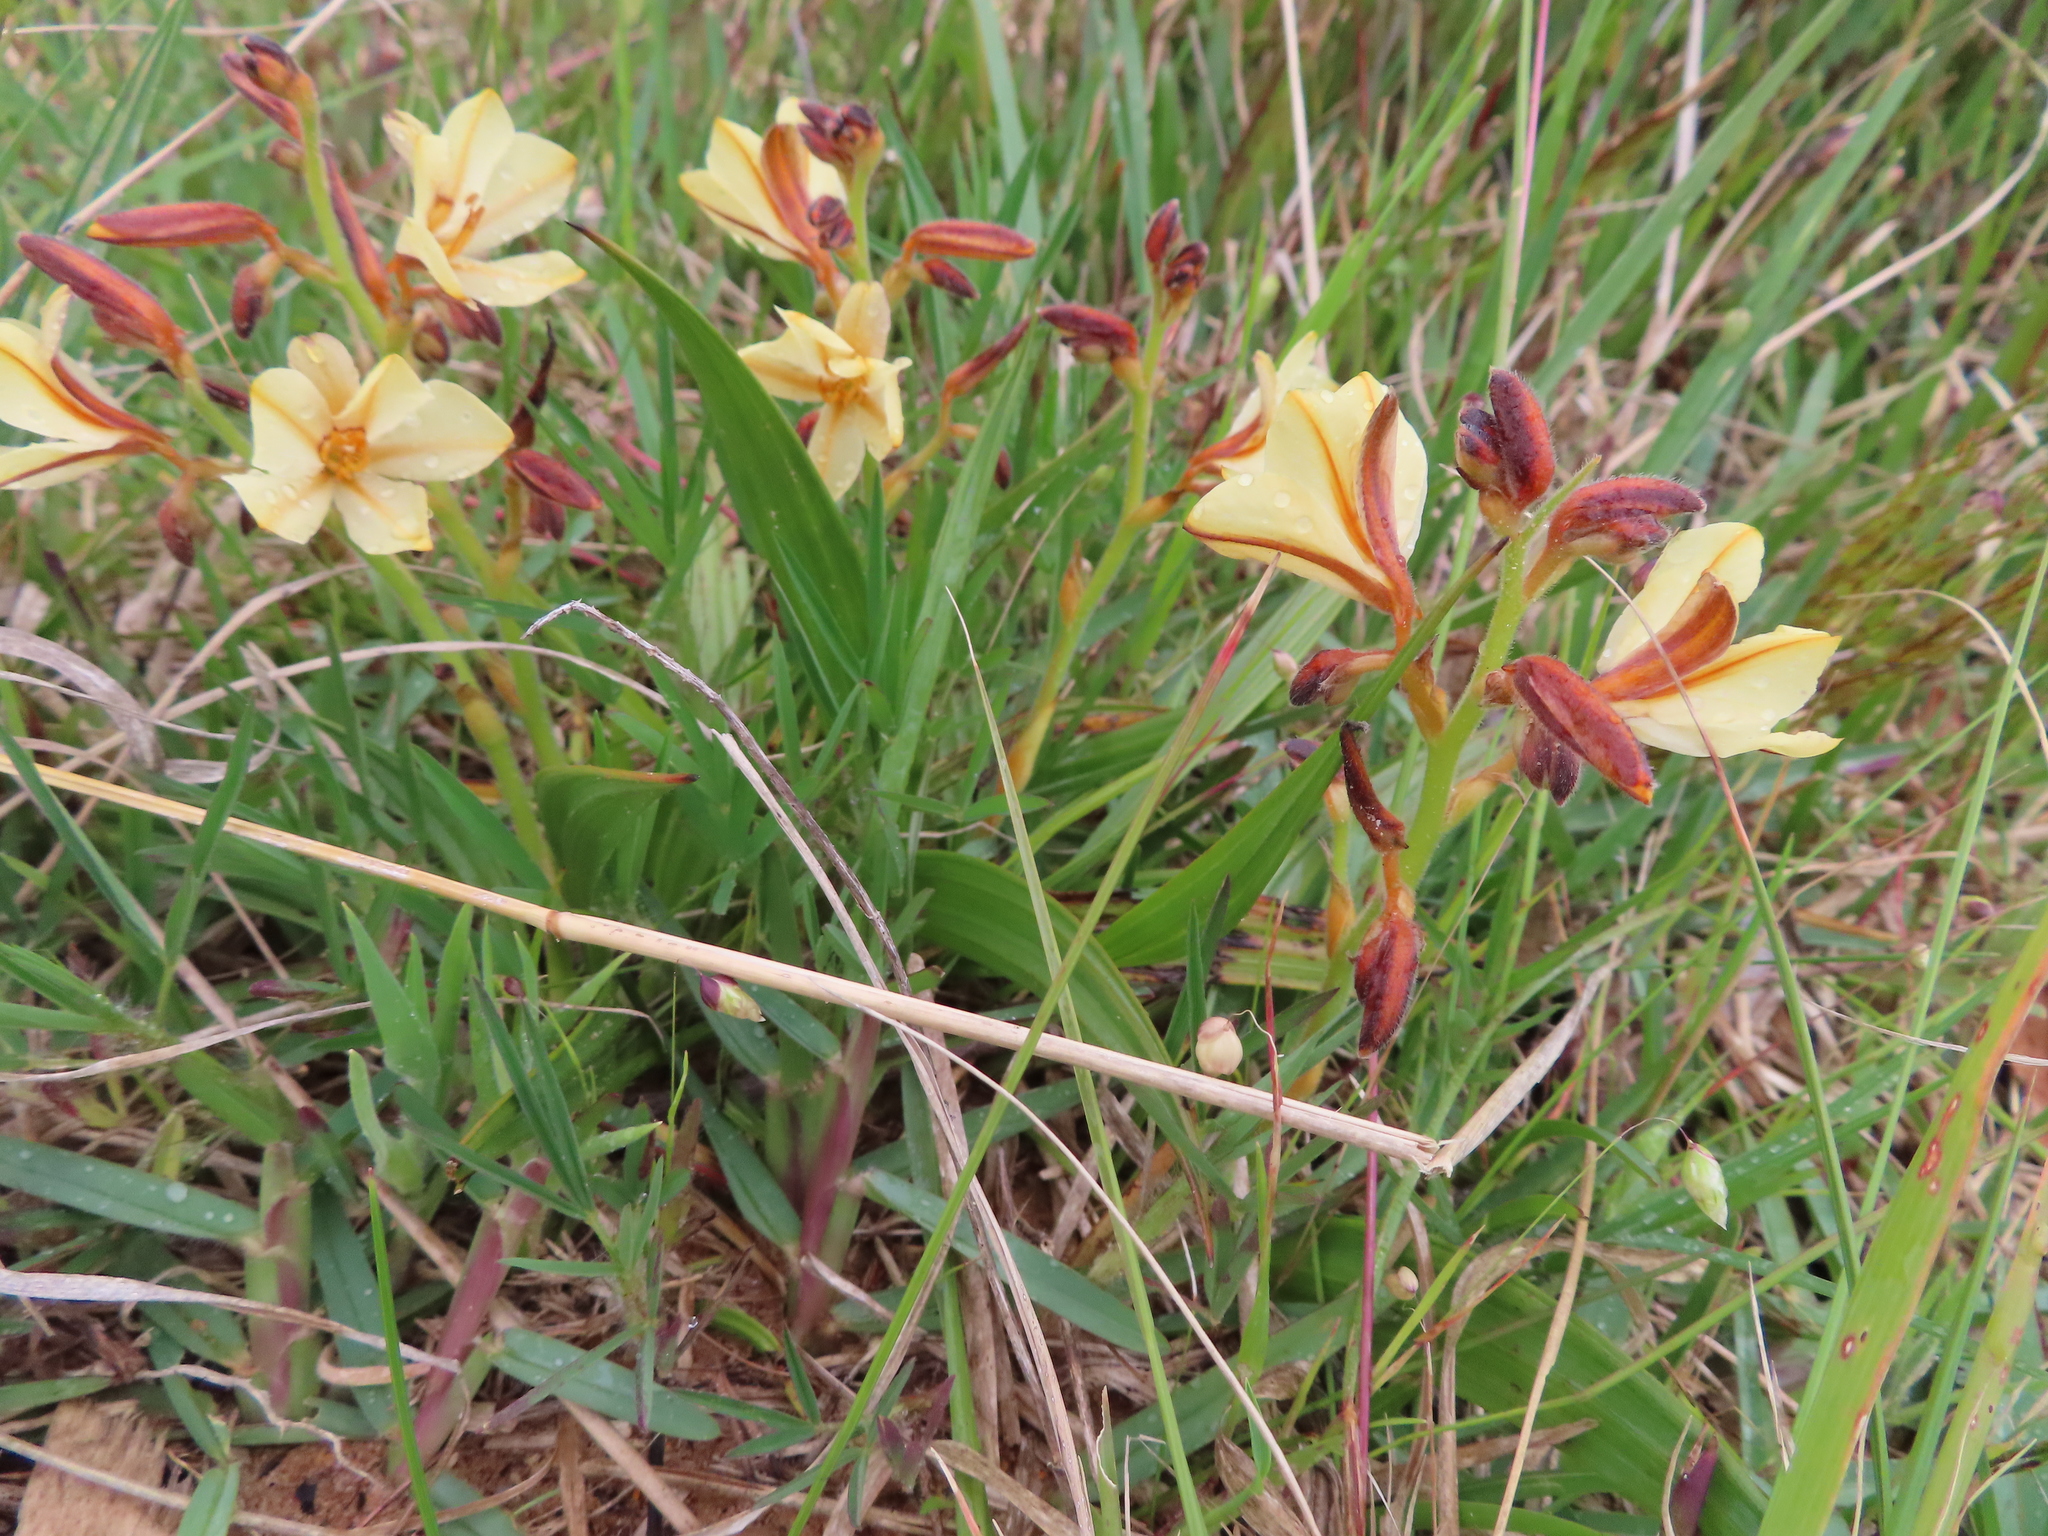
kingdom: Plantae
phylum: Tracheophyta
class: Liliopsida
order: Commelinales
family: Haemodoraceae
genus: Wachendorfia
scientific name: Wachendorfia paniculata
